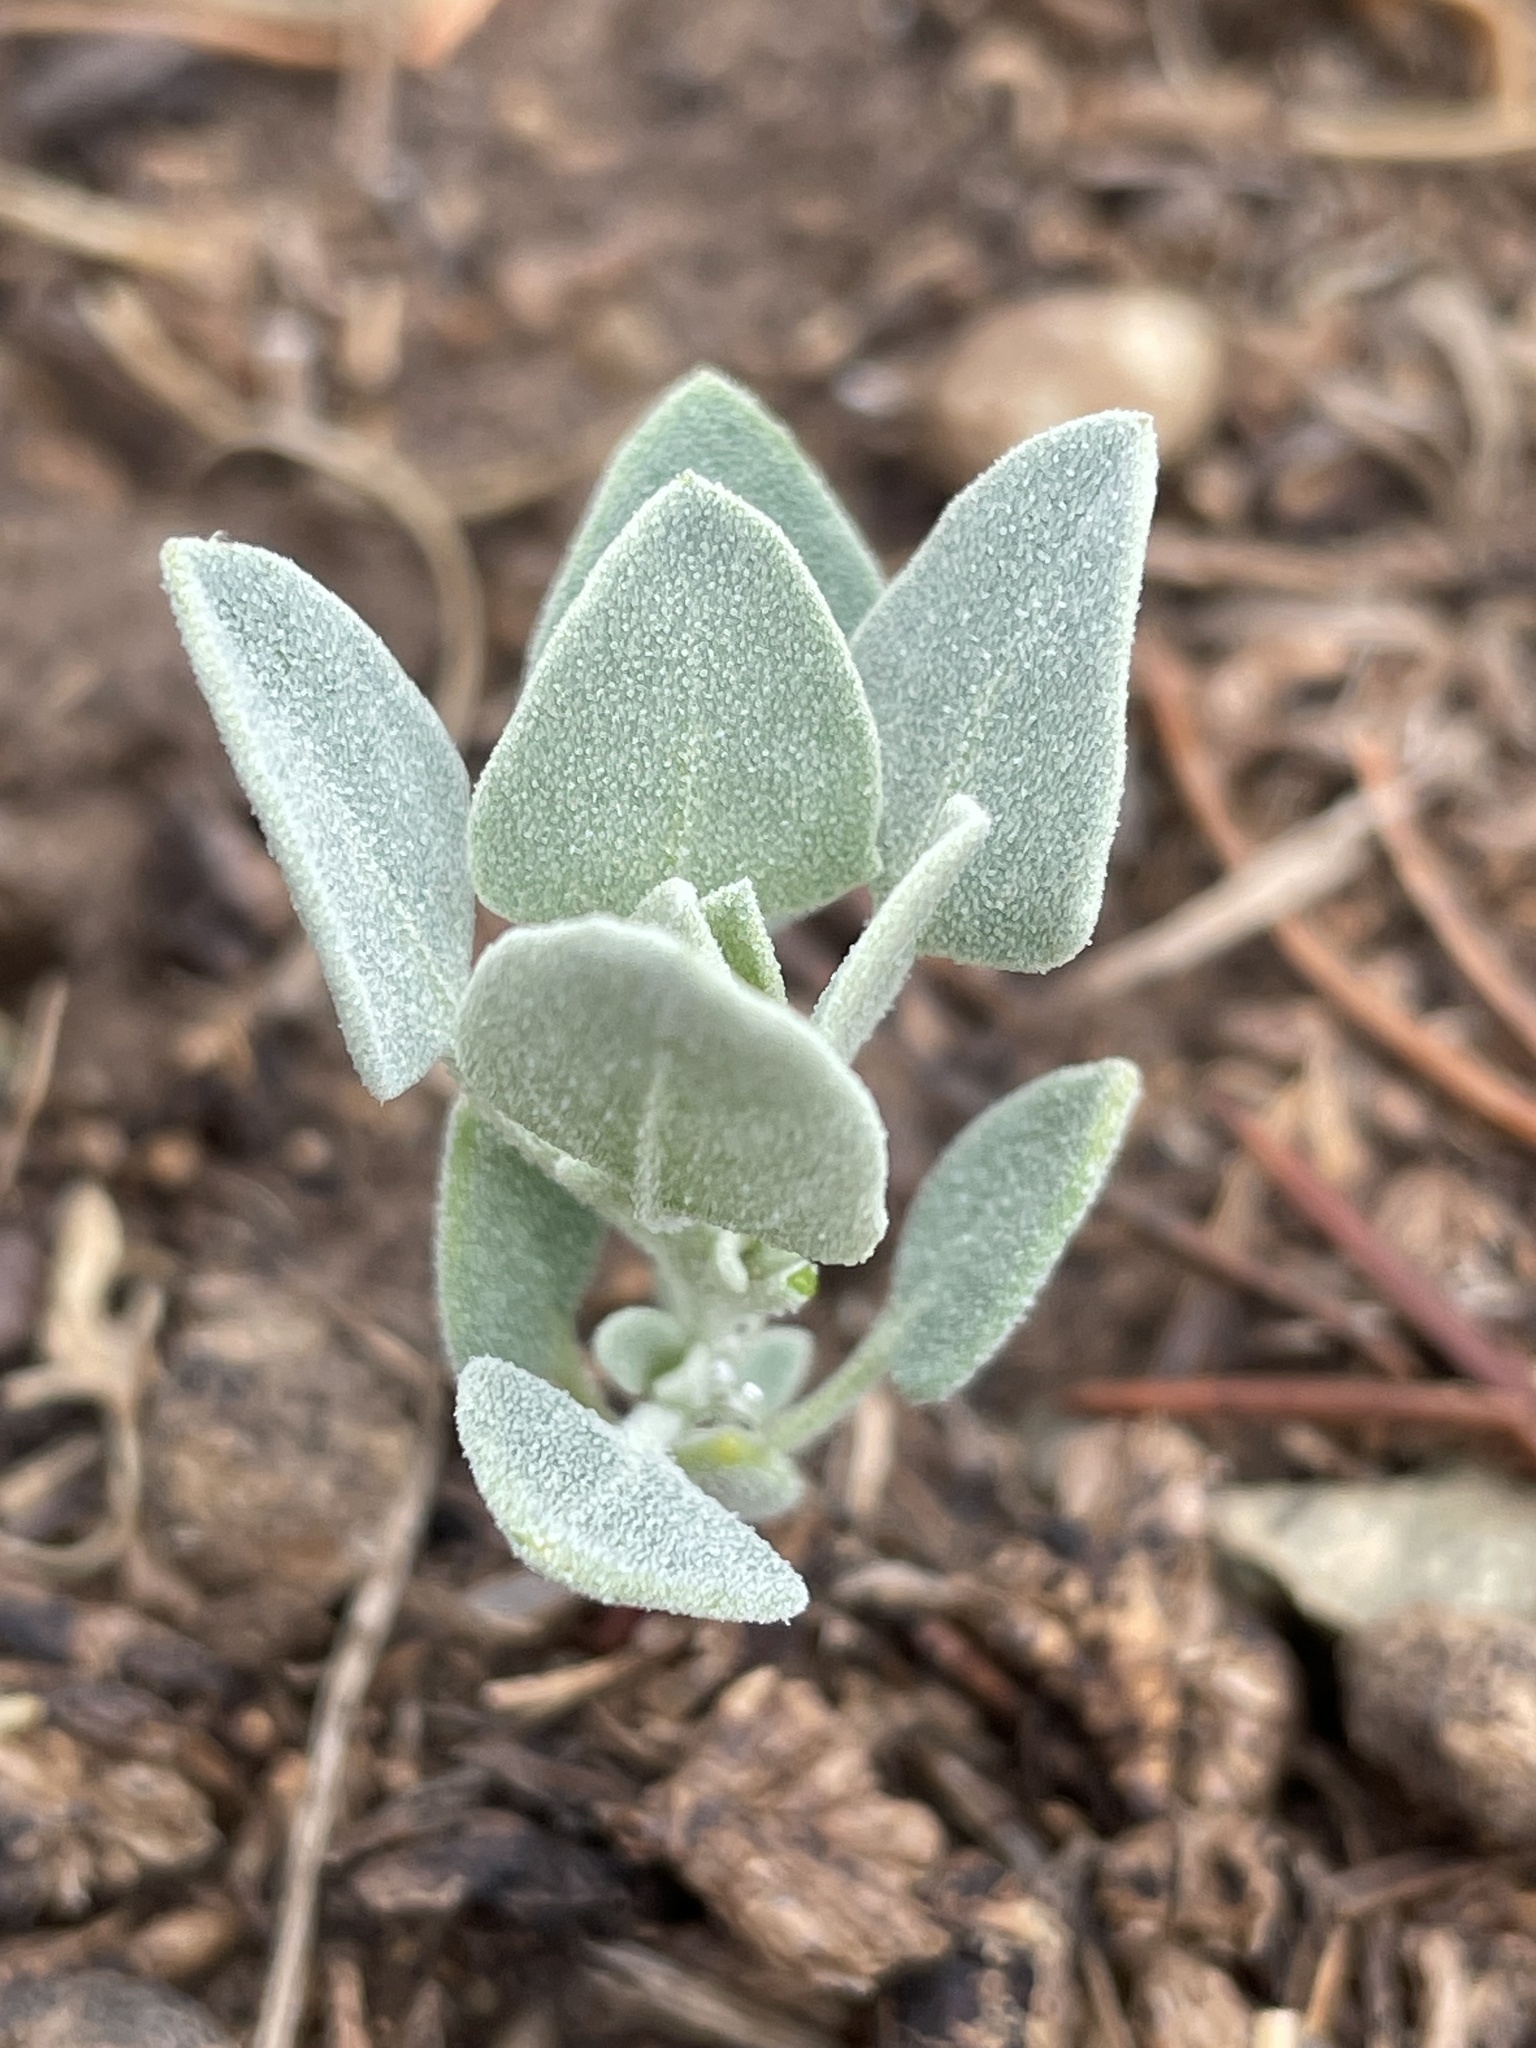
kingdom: Plantae
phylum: Tracheophyta
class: Magnoliopsida
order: Caryophyllales
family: Amaranthaceae
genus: Chenopodium
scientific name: Chenopodium incanum
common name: Hoary goosefoot
